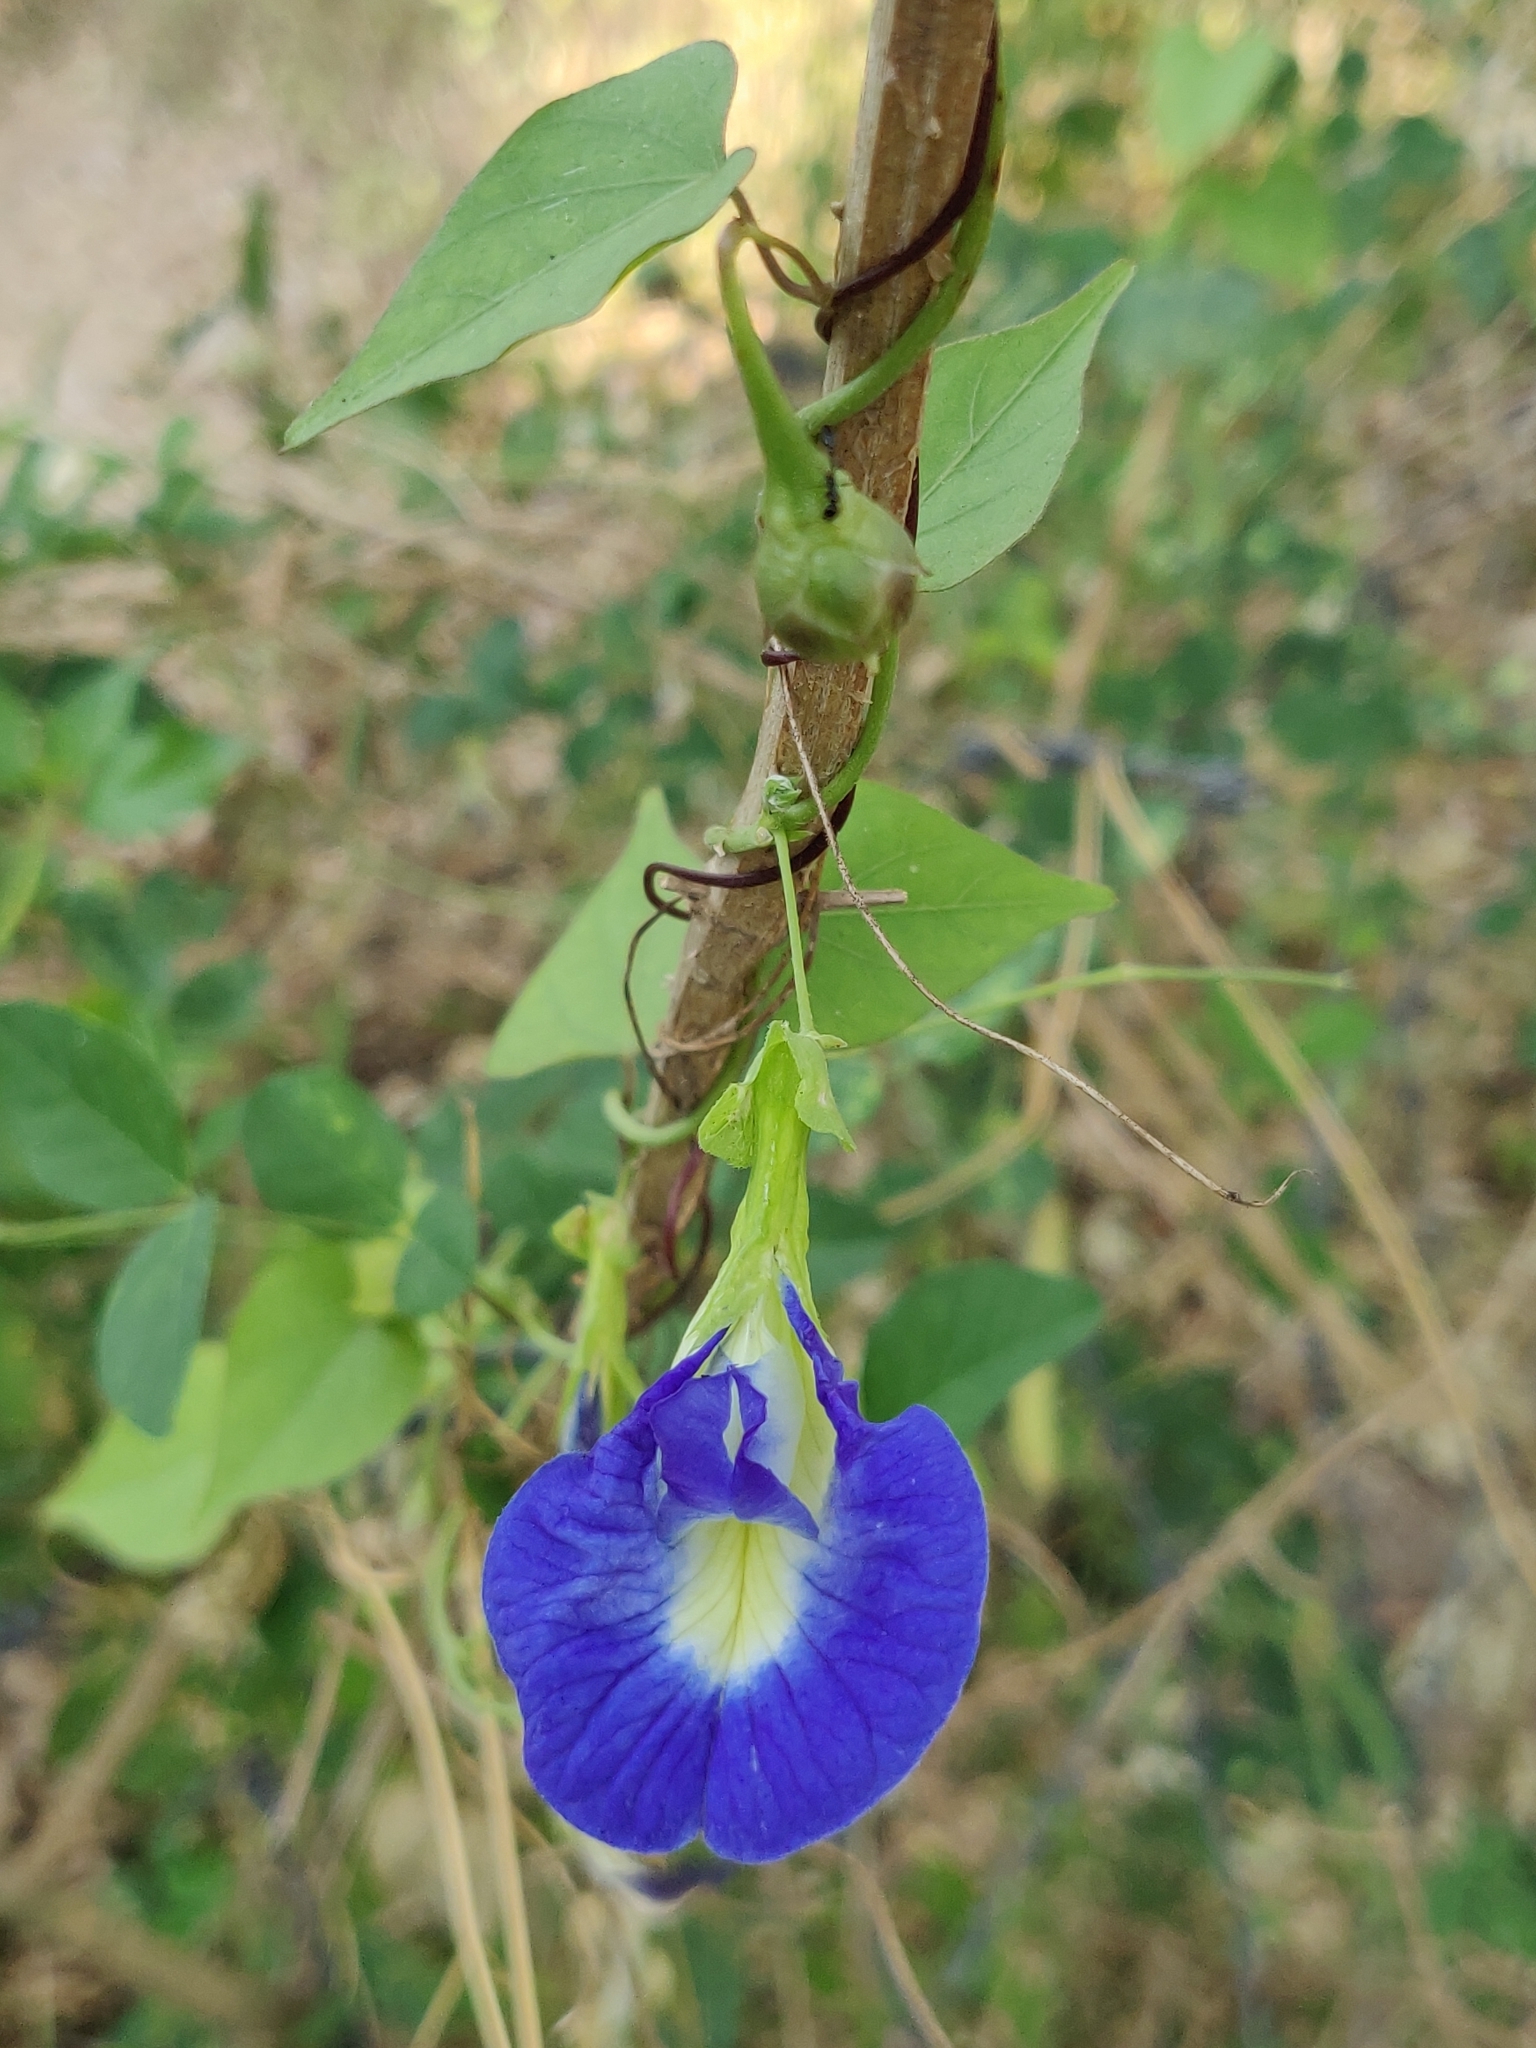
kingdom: Plantae
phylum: Tracheophyta
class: Magnoliopsida
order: Fabales
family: Fabaceae
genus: Clitoria
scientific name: Clitoria ternatea
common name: Asian pigeonwings
